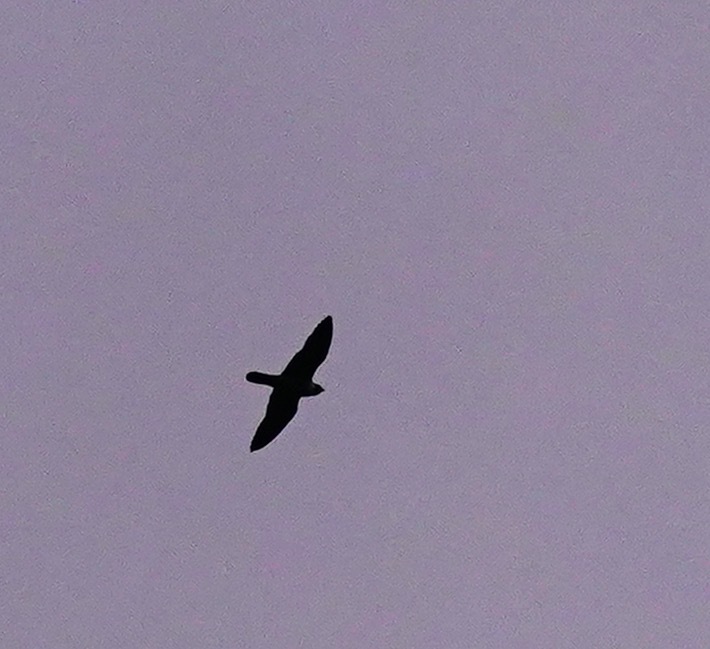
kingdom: Animalia
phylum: Chordata
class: Aves
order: Falconiformes
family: Falconidae
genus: Falco
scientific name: Falco peregrinus
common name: Peregrine falcon
